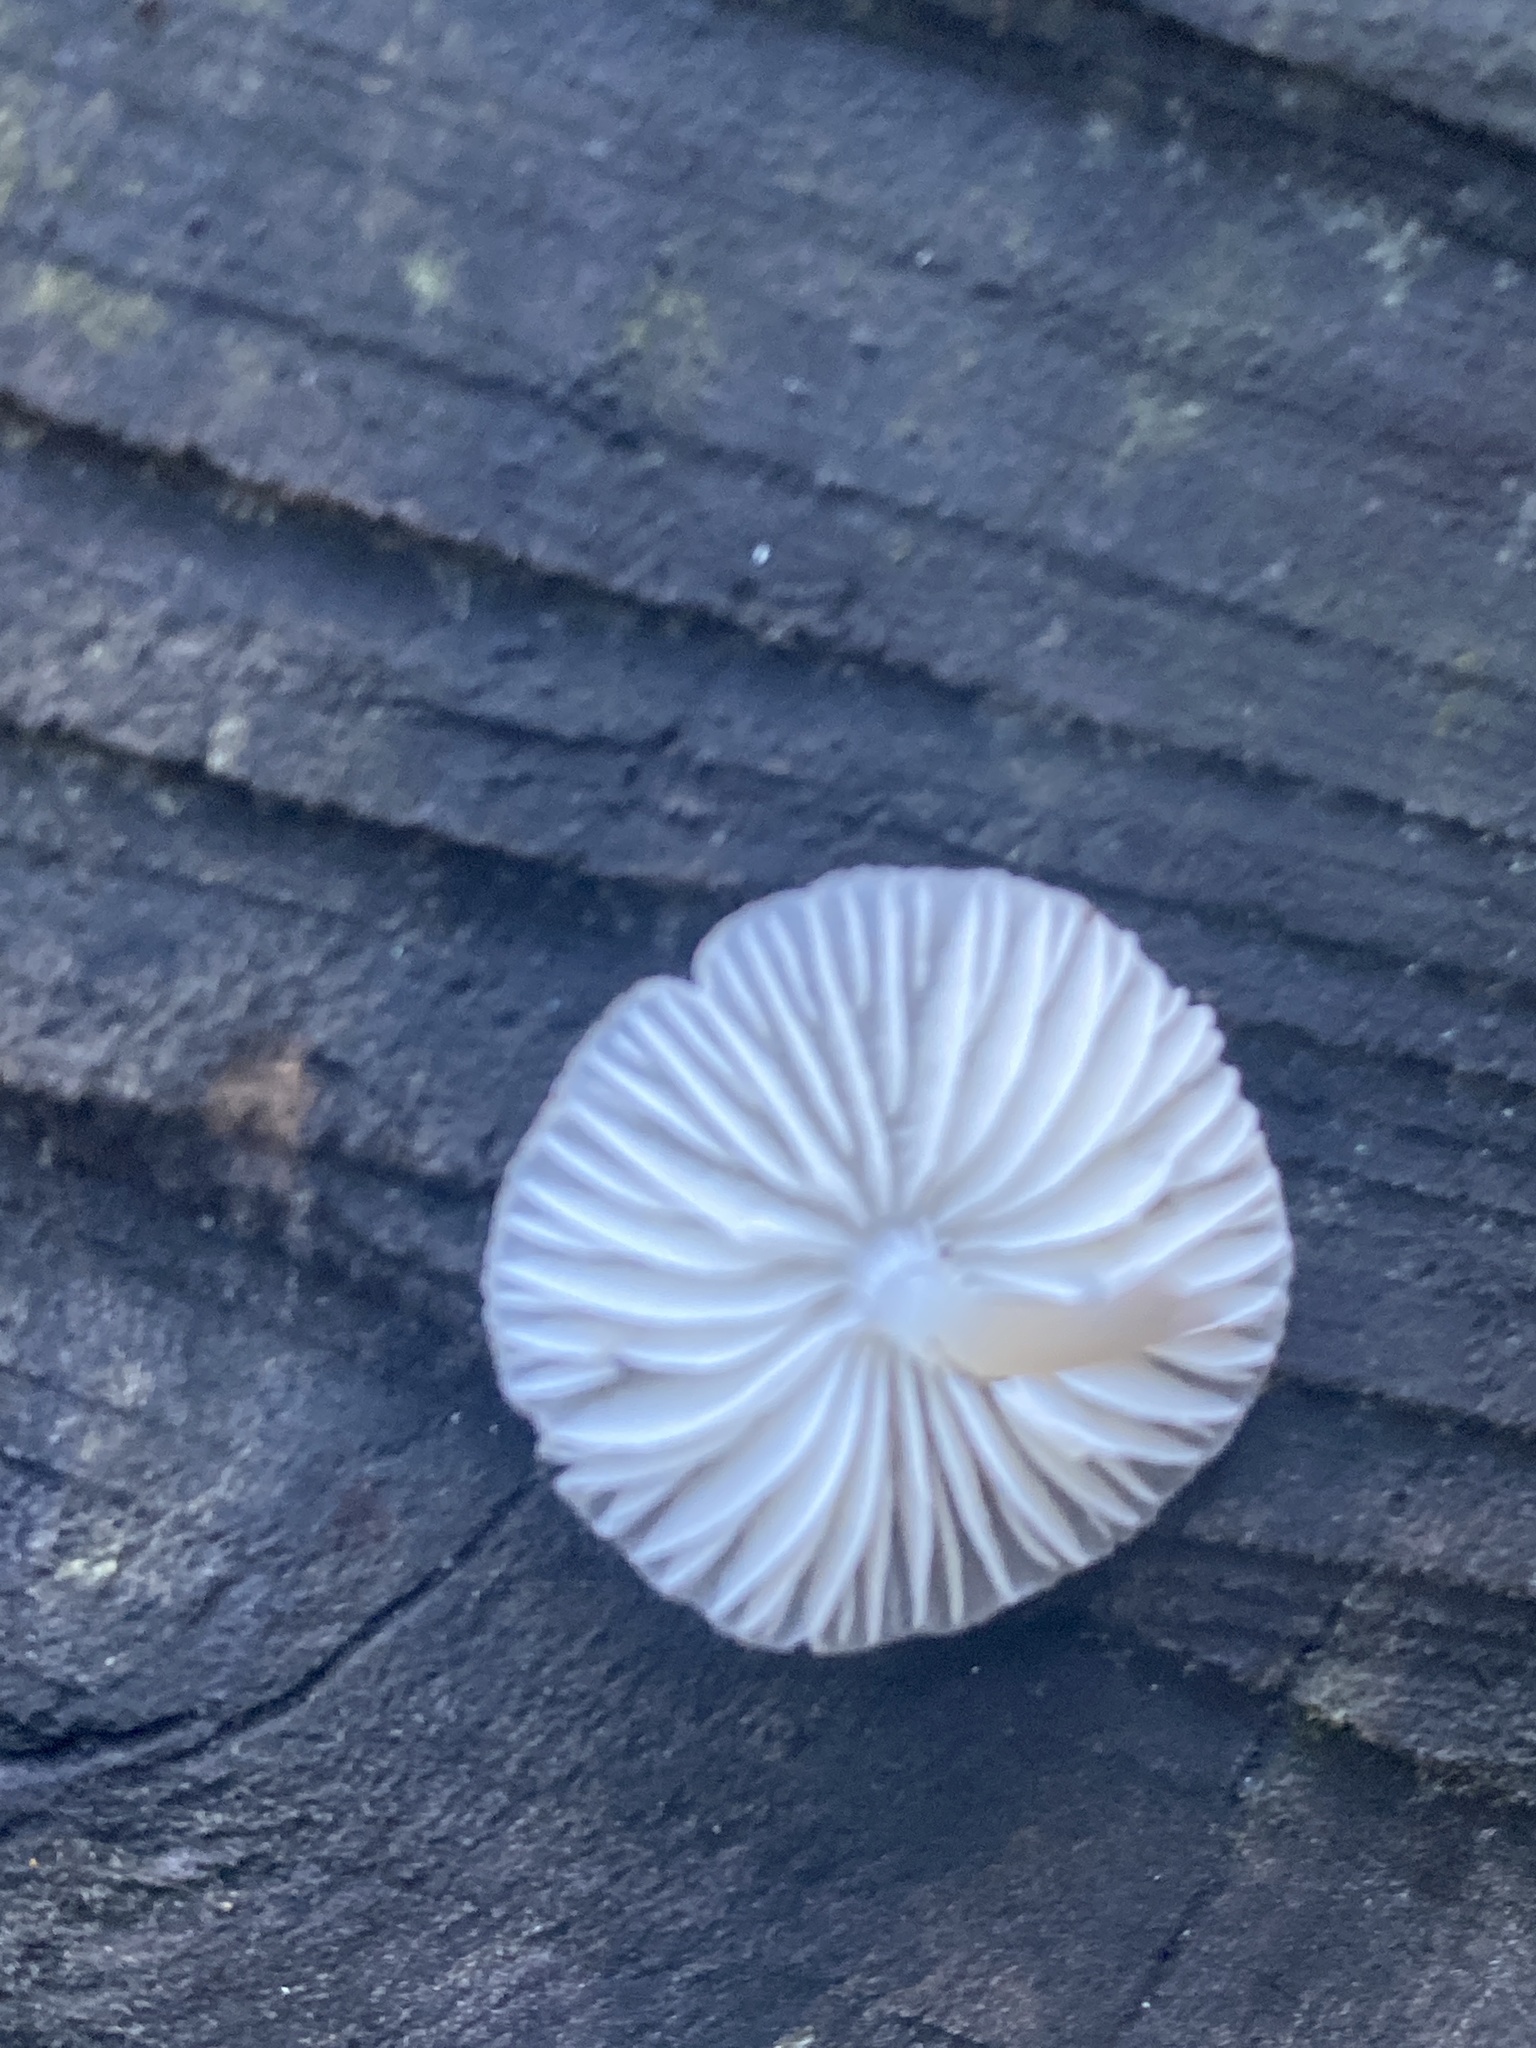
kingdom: Fungi
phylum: Basidiomycota
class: Agaricomycetes
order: Agaricales
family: Mycenaceae
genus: Mycena
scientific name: Mycena galericulata
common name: Bonnet mycena
